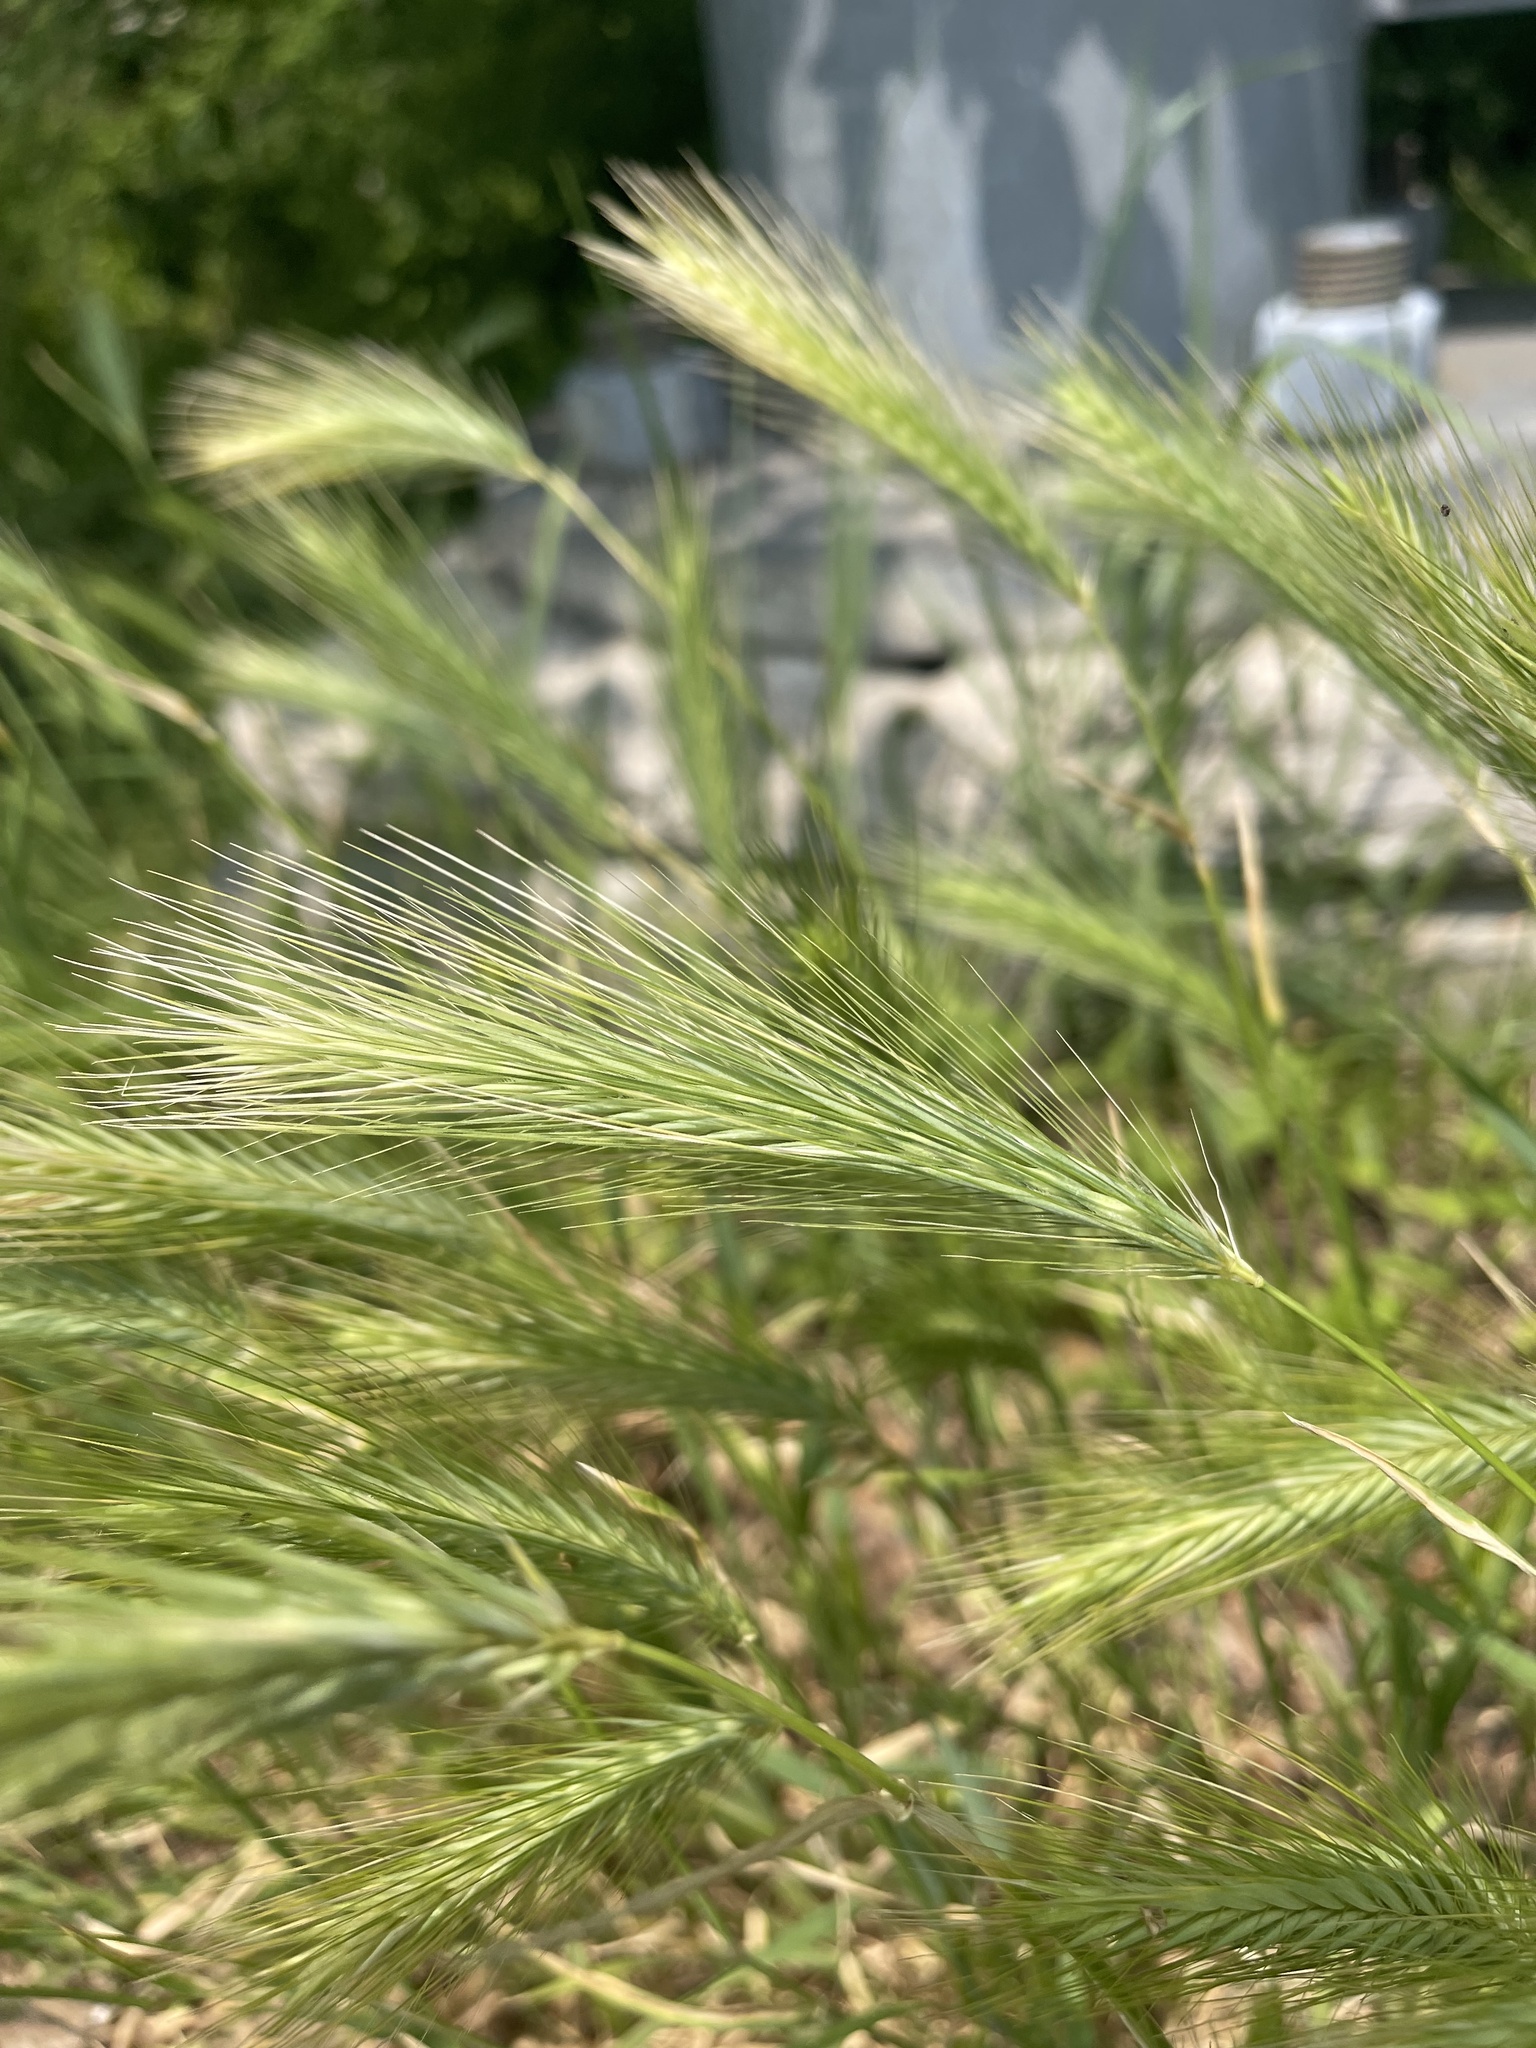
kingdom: Plantae
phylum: Tracheophyta
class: Liliopsida
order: Poales
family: Poaceae
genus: Hordeum
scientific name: Hordeum murinum
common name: Wall barley
